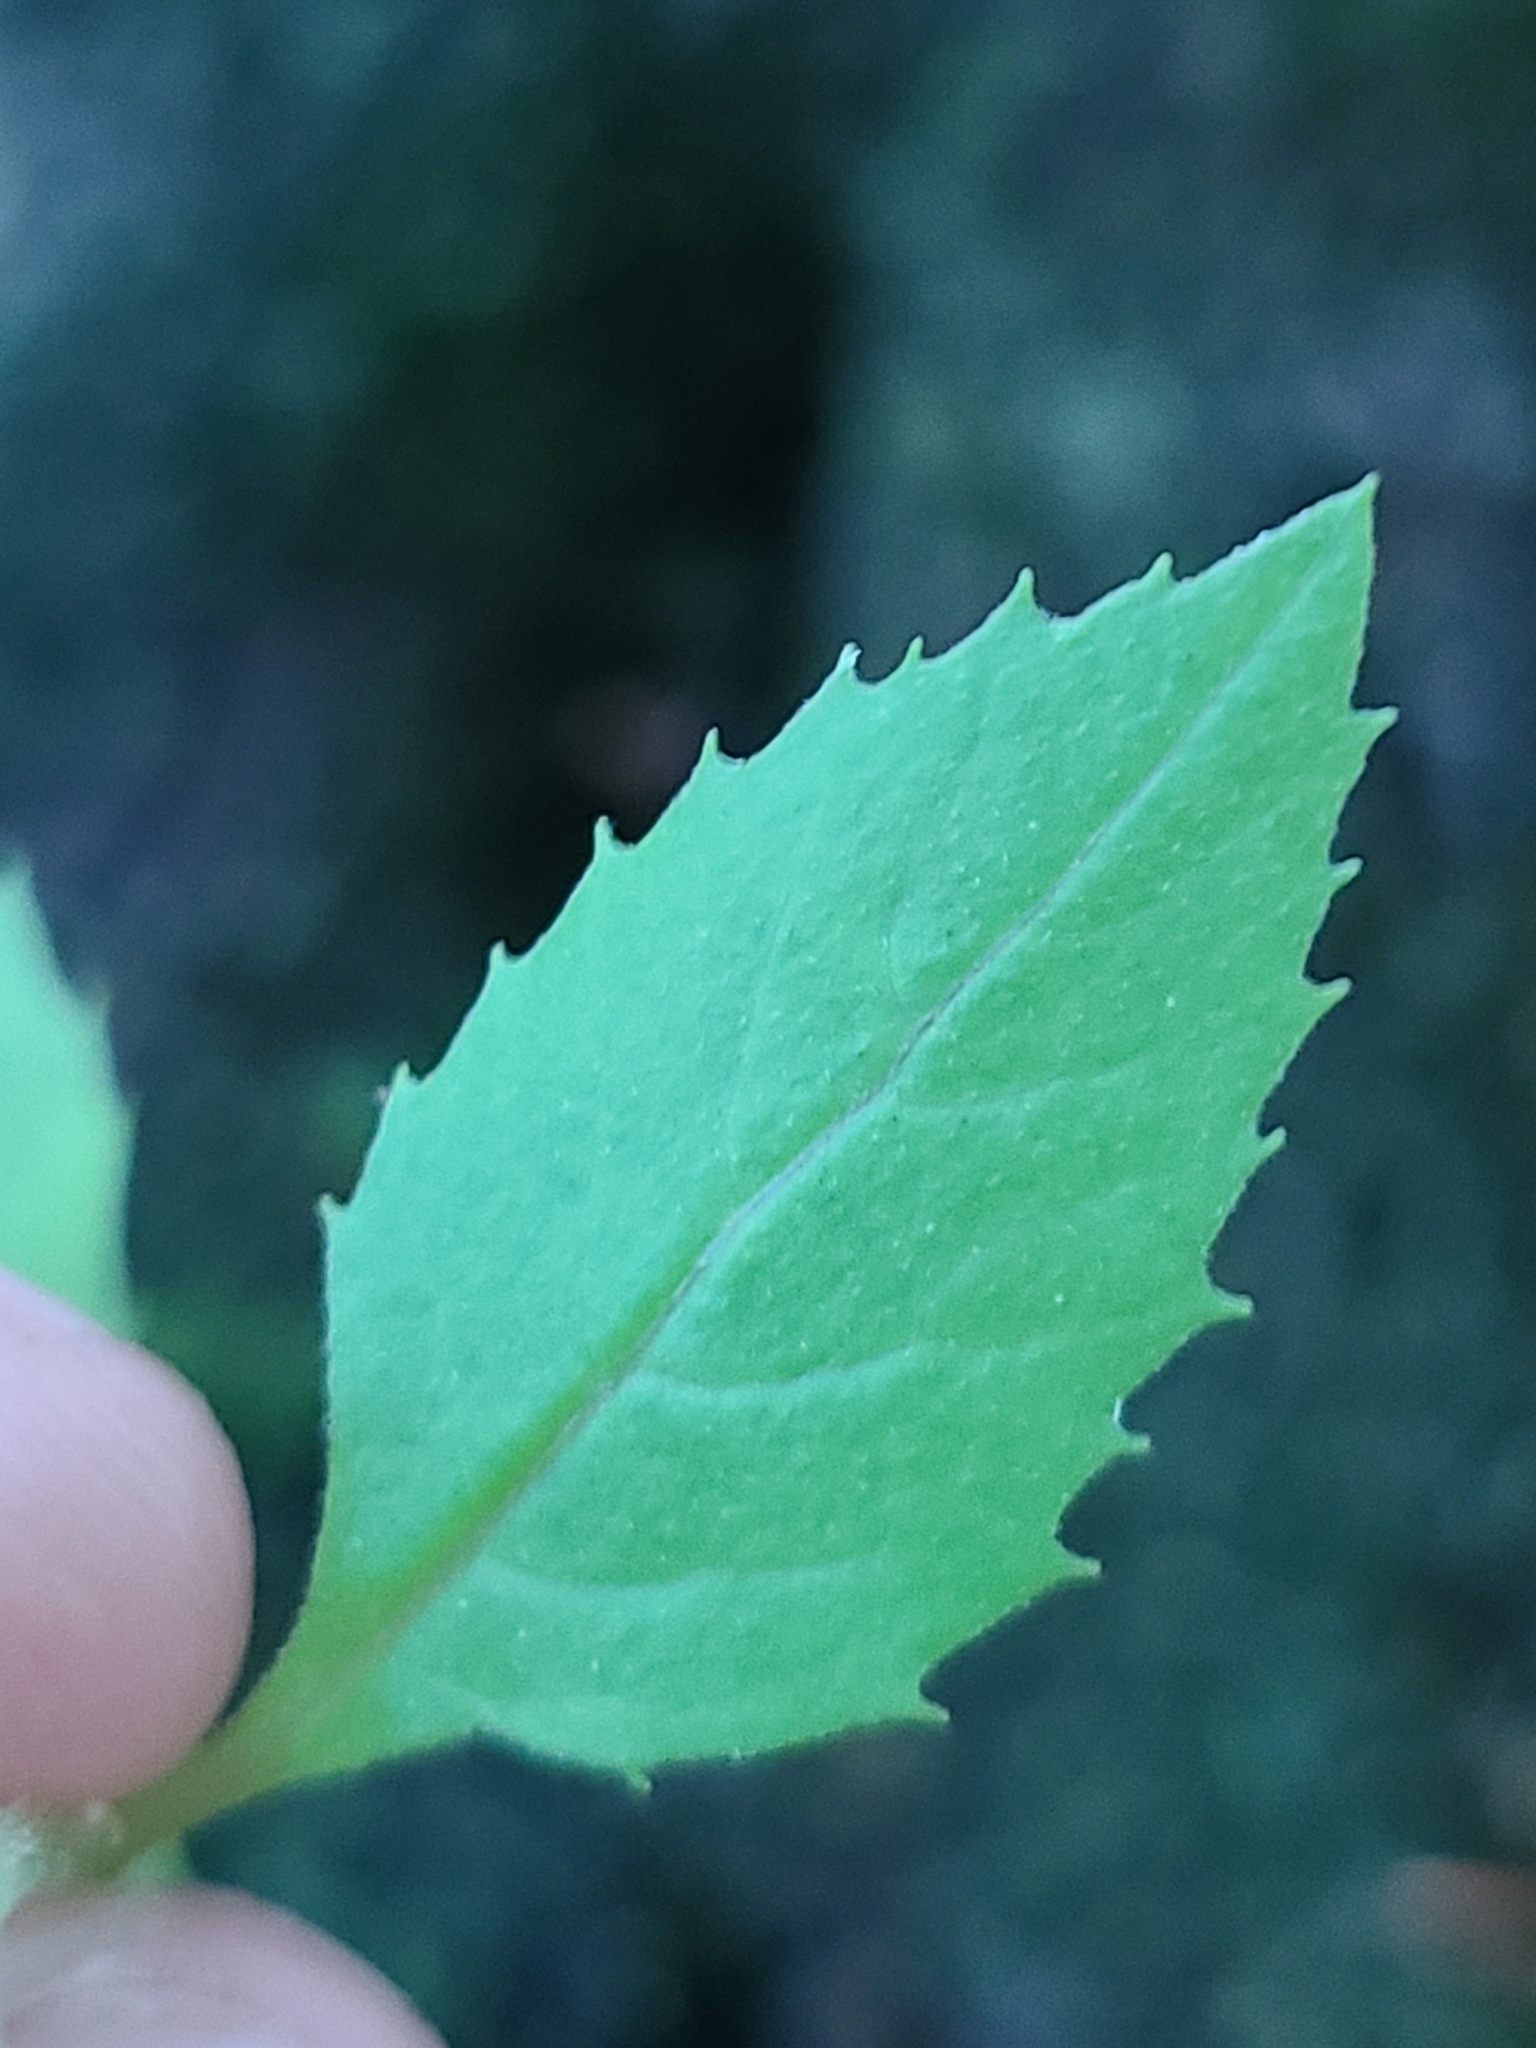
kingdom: Plantae
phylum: Tracheophyta
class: Magnoliopsida
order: Asterales
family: Asteraceae
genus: Erechtites
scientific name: Erechtites hieraciifolius
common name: American burnweed
